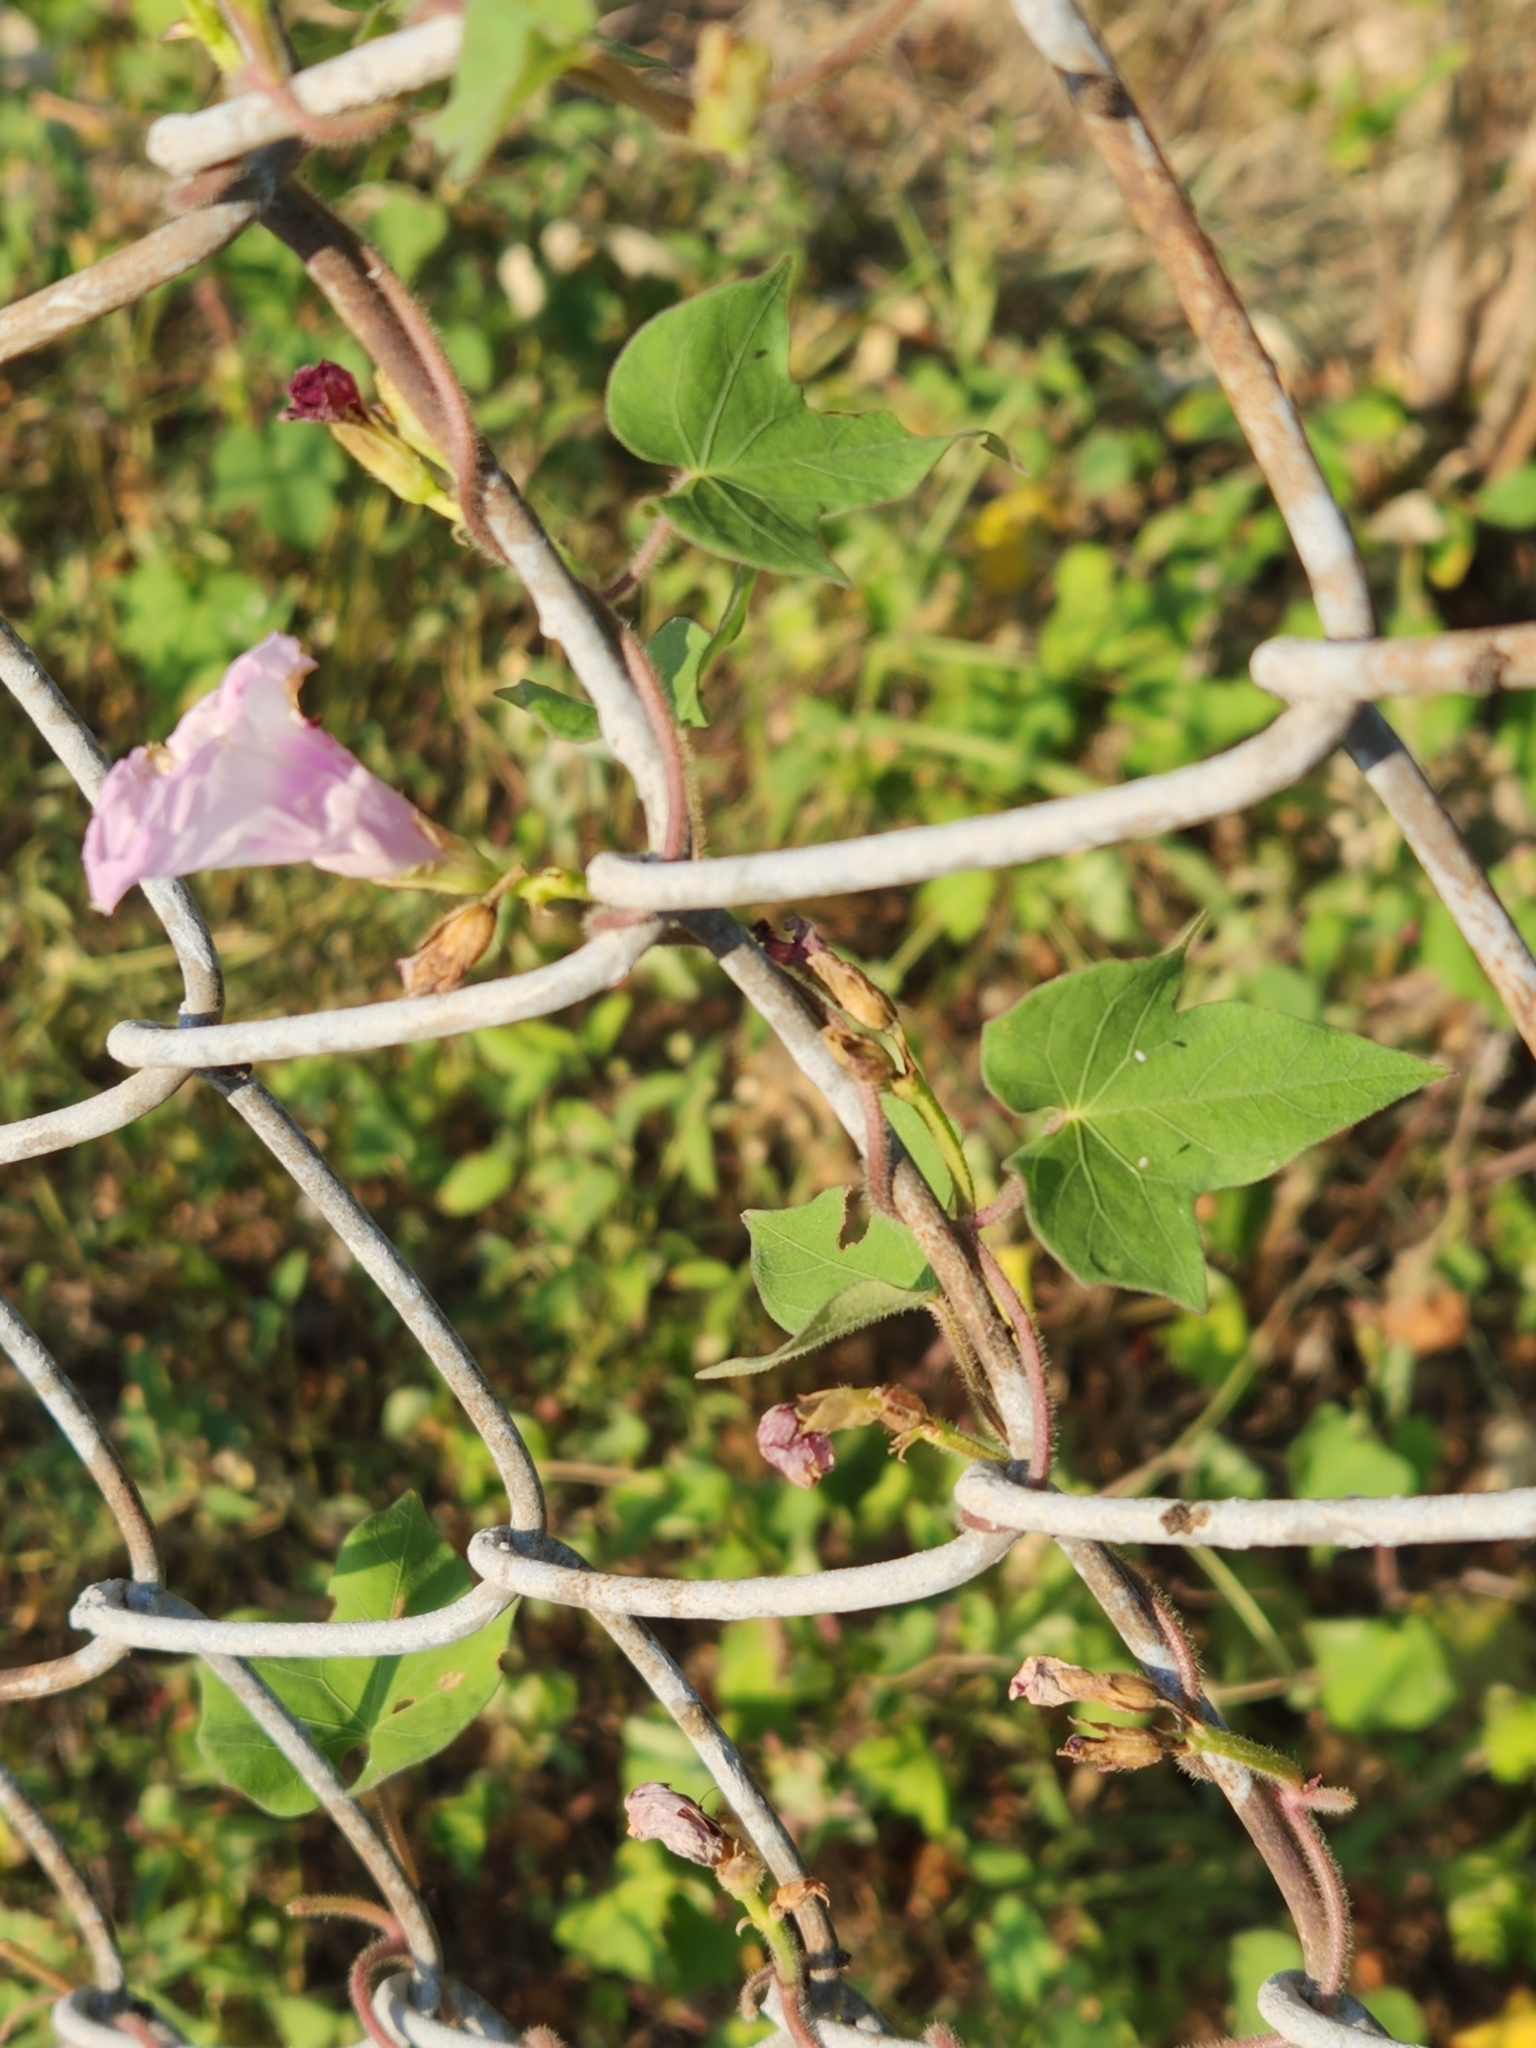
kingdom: Plantae
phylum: Tracheophyta
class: Magnoliopsida
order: Solanales
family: Convolvulaceae
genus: Ipomoea
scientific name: Ipomoea cordatotriloba
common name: Cotton morning glory
